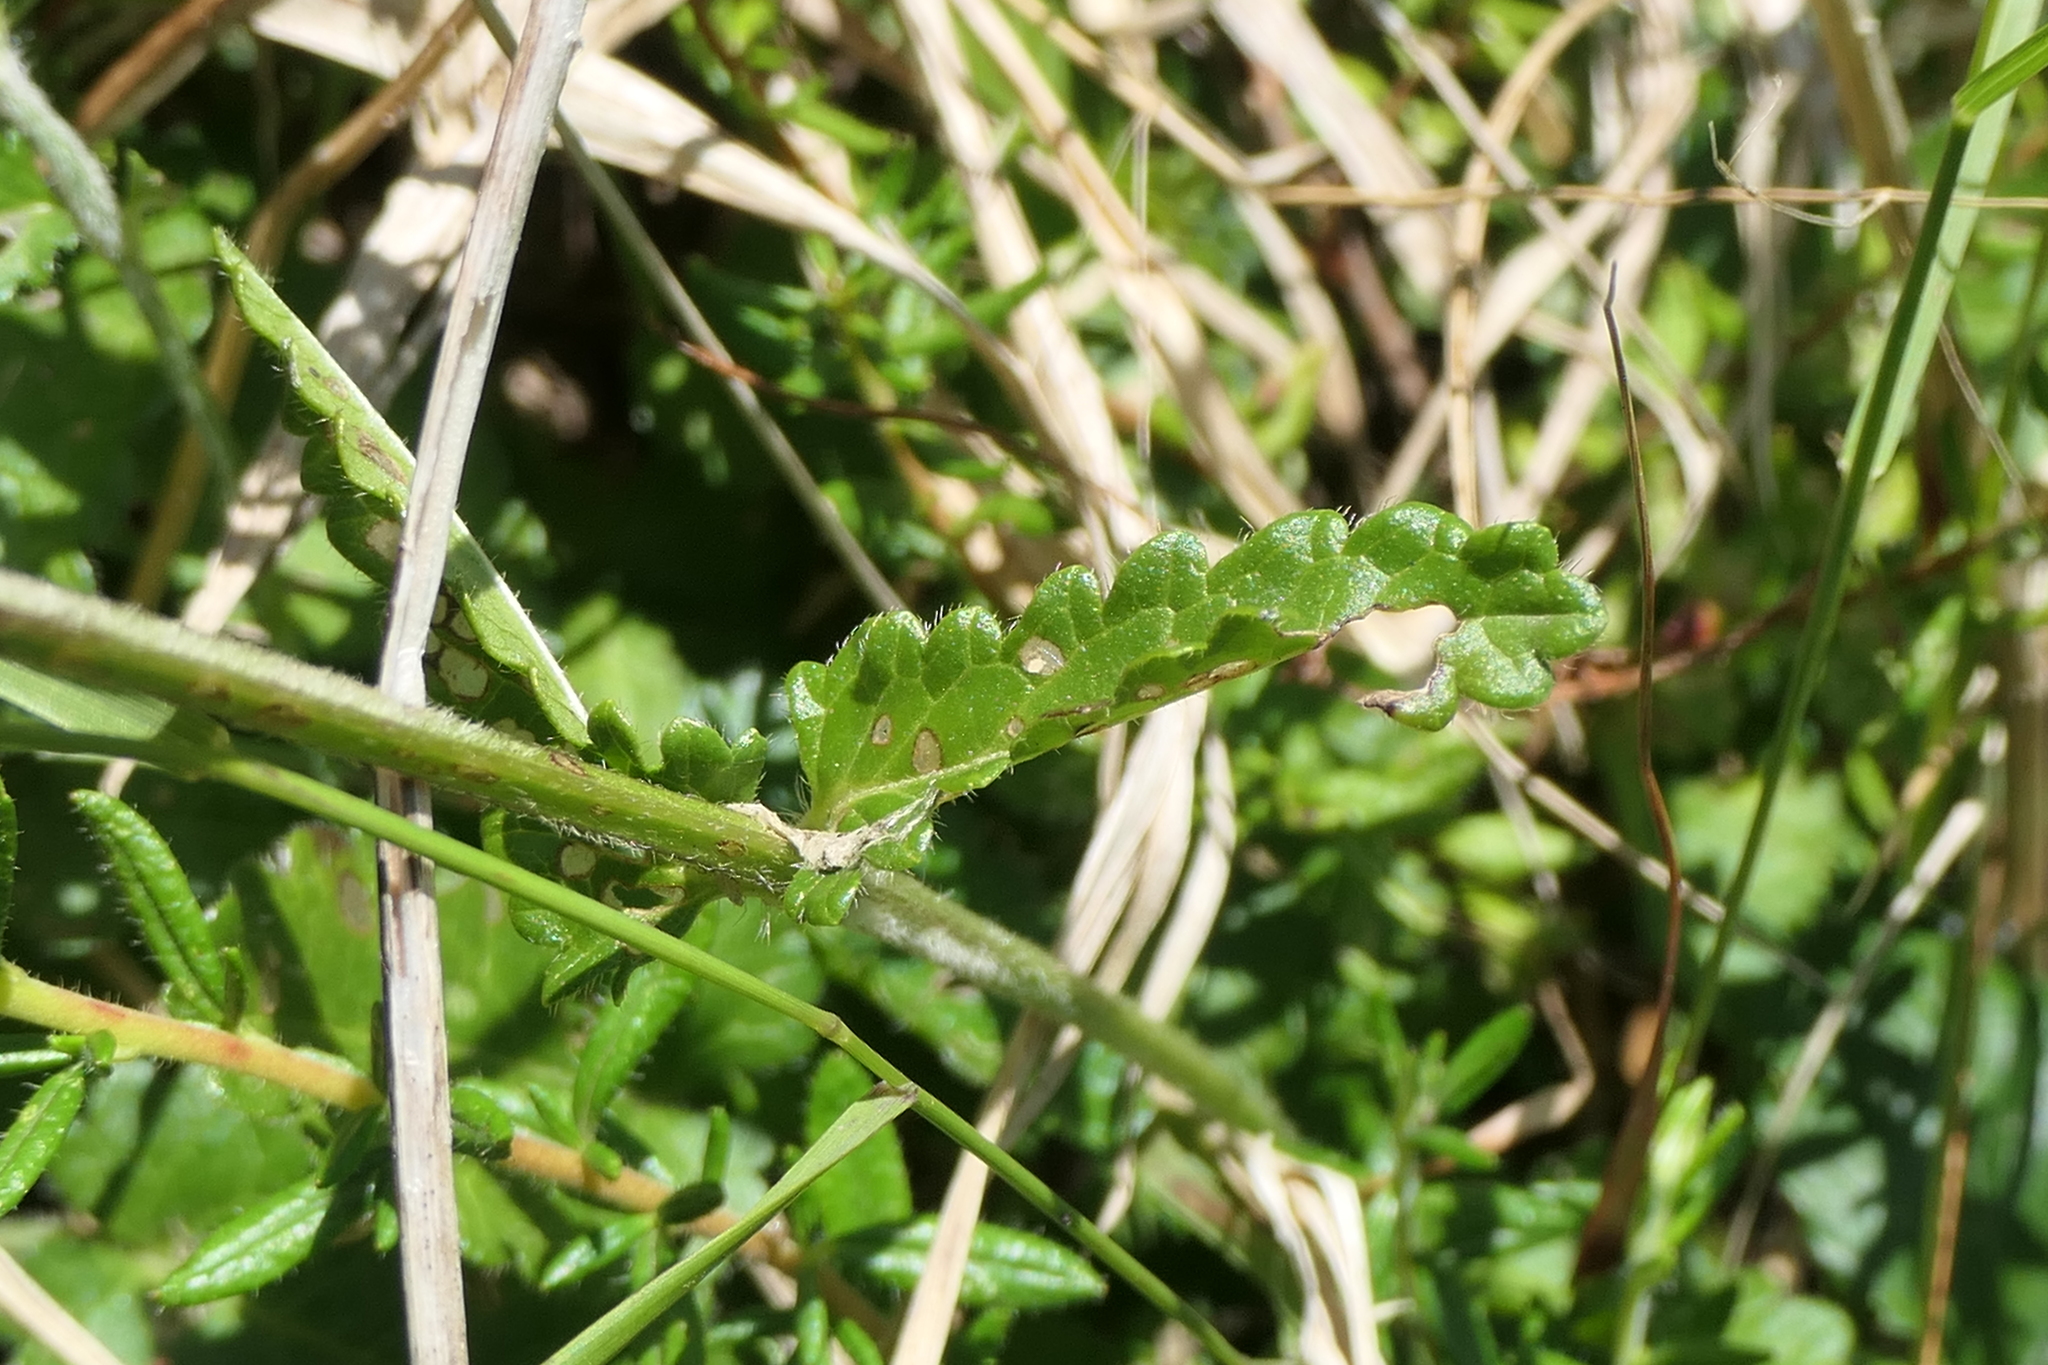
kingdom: Plantae
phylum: Tracheophyta
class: Magnoliopsida
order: Lamiales
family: Lamiaceae
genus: Betonica
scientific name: Betonica officinalis
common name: Bishop's-wort
